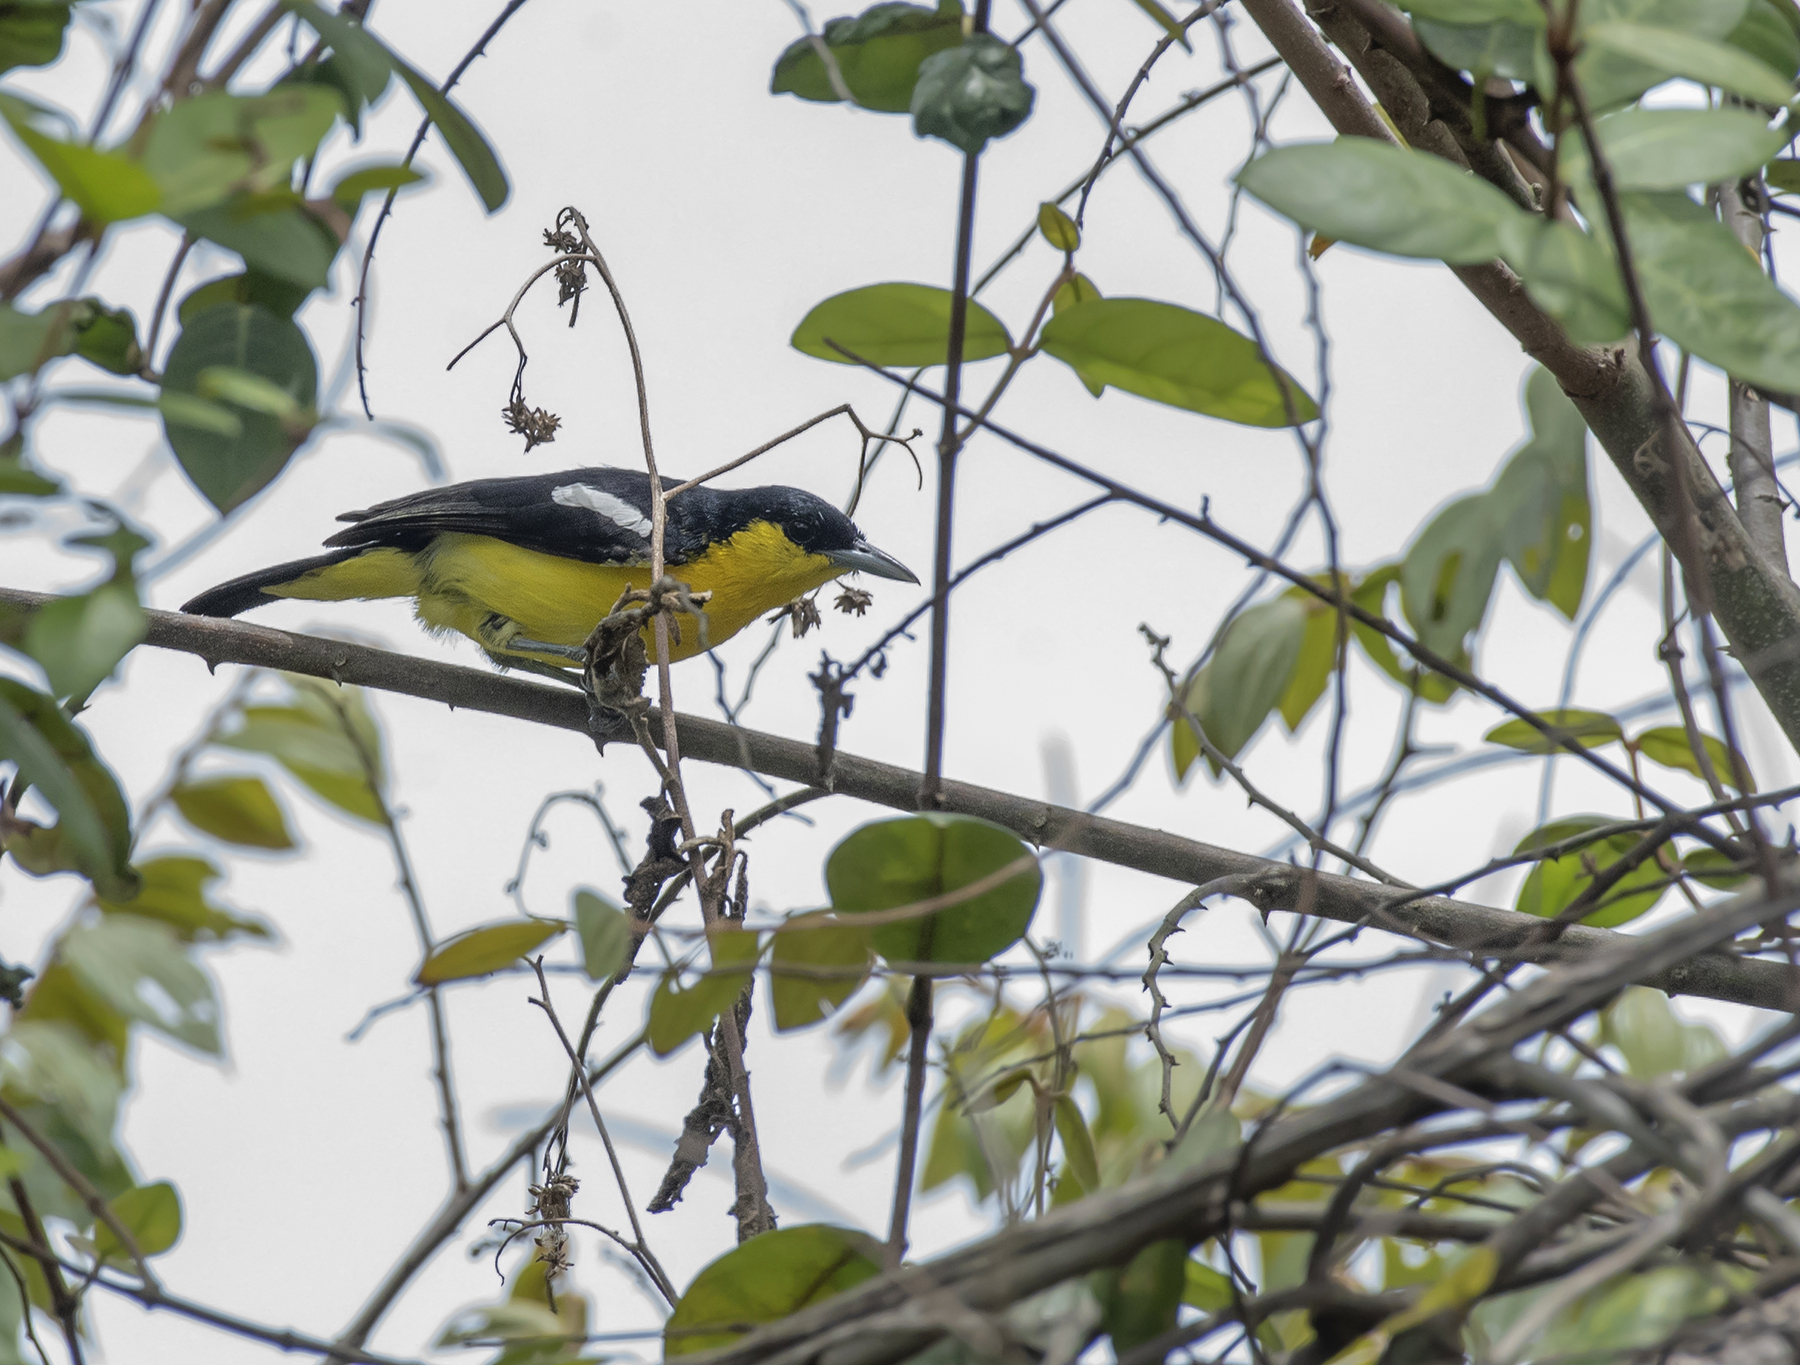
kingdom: Animalia
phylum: Chordata
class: Aves
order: Passeriformes
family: Aegithinidae
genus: Aegithina
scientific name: Aegithina tiphia
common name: Common iora
